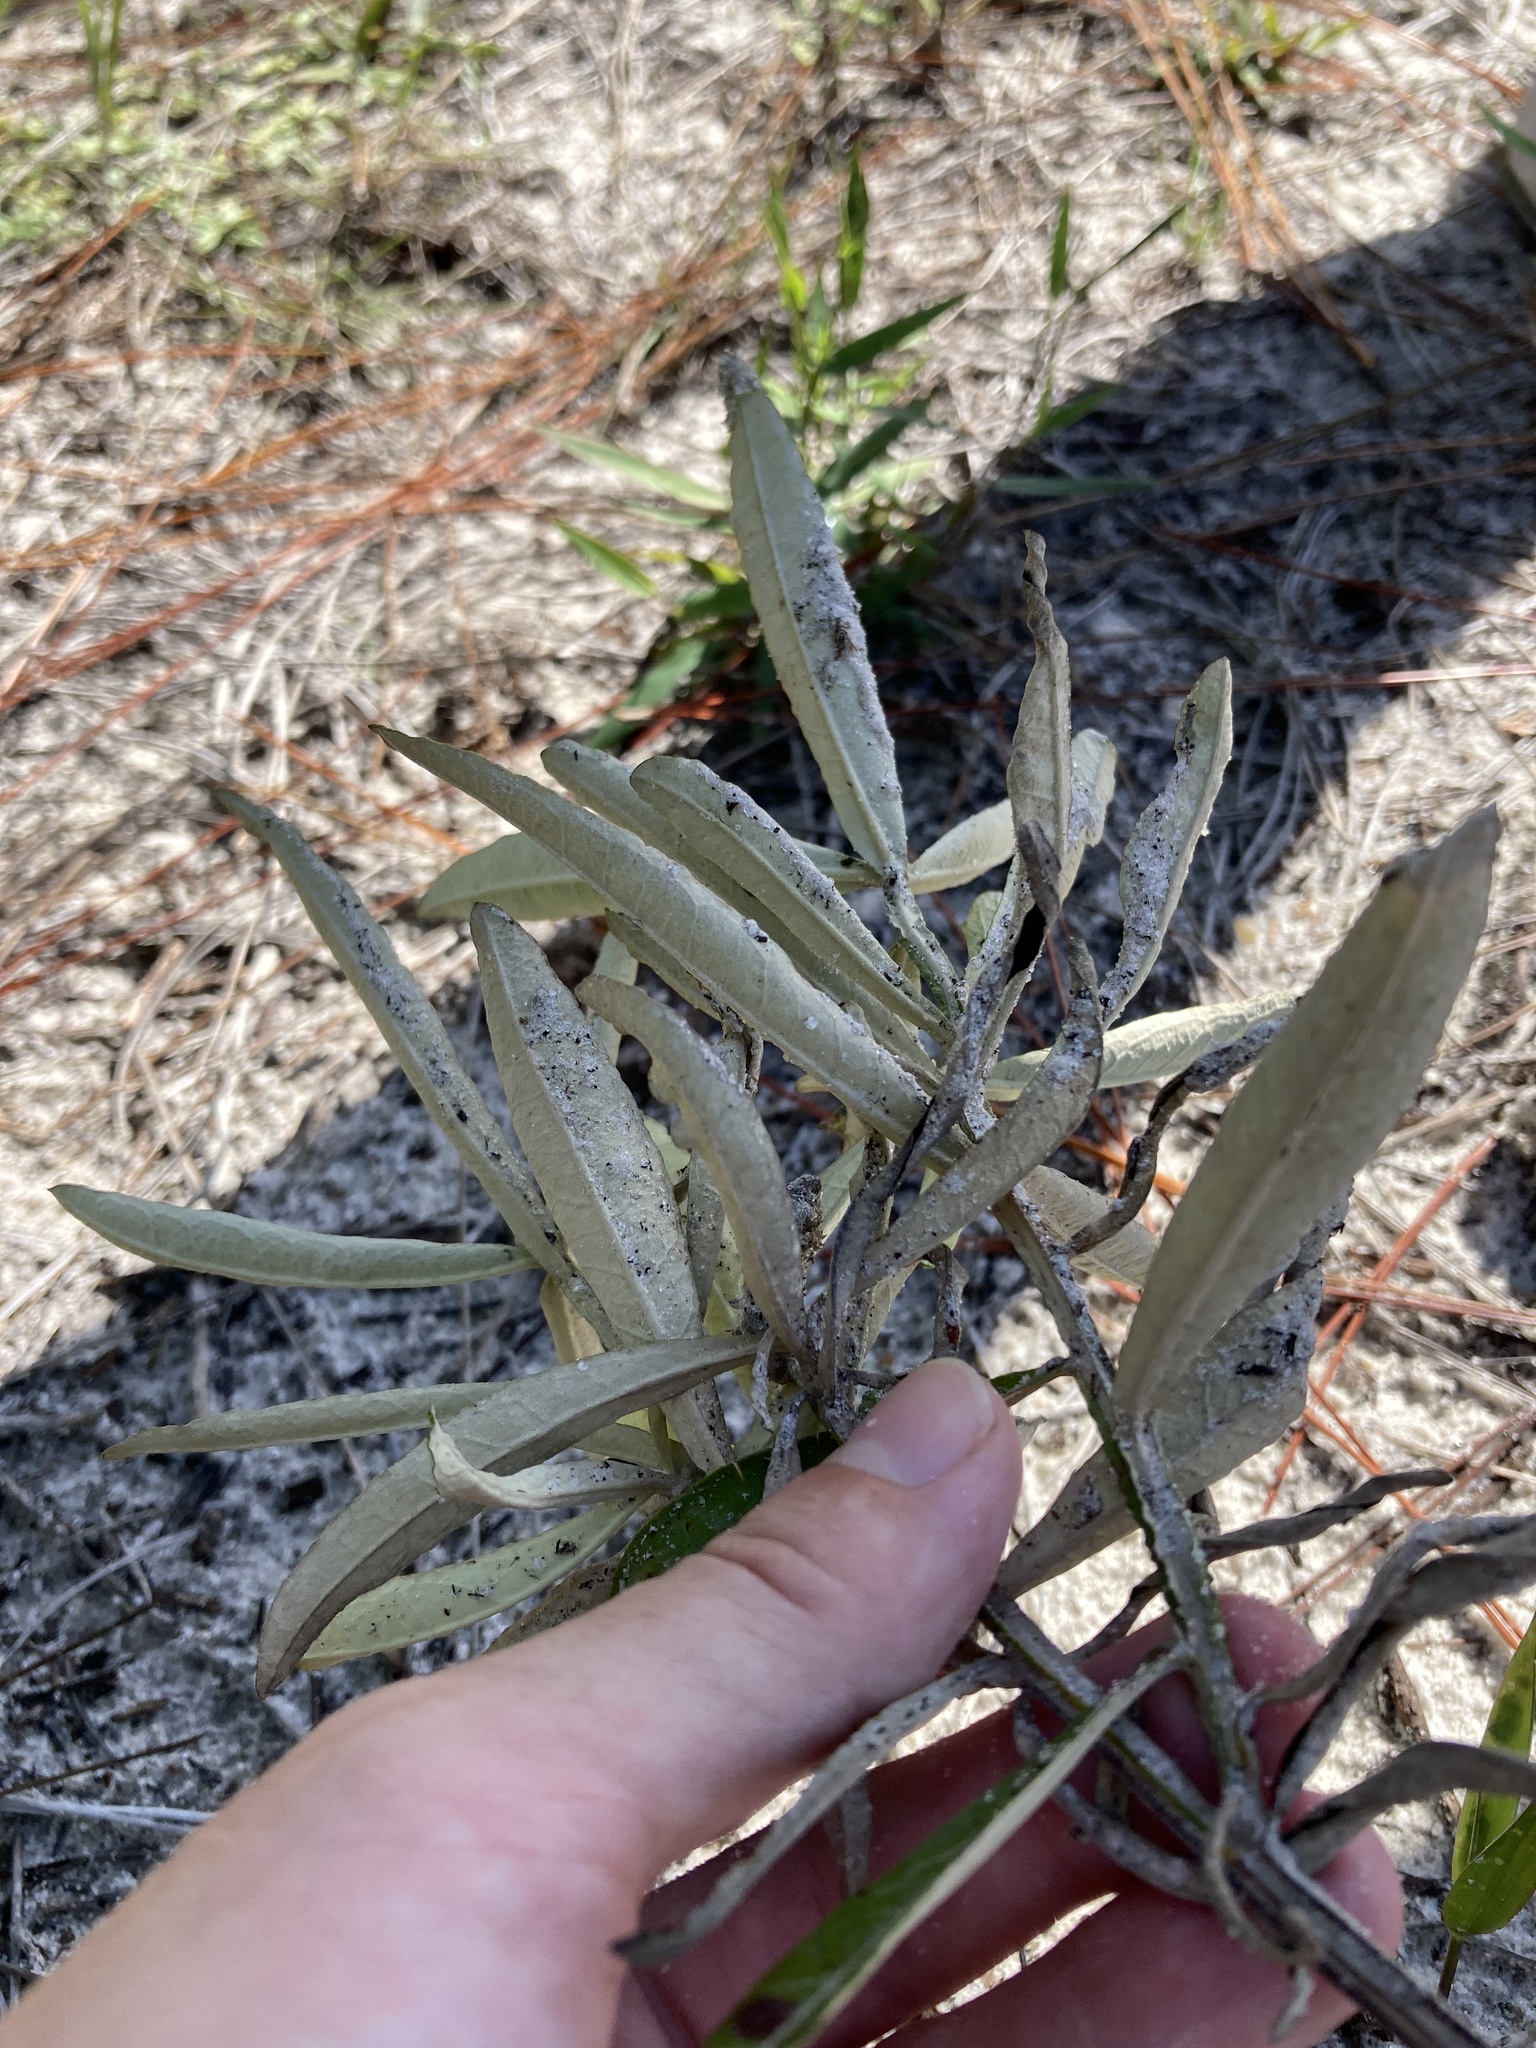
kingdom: Plantae
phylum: Tracheophyta
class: Magnoliopsida
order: Asterales
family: Asteraceae
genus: Pterocaulon
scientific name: Pterocaulon pycnostachyum
